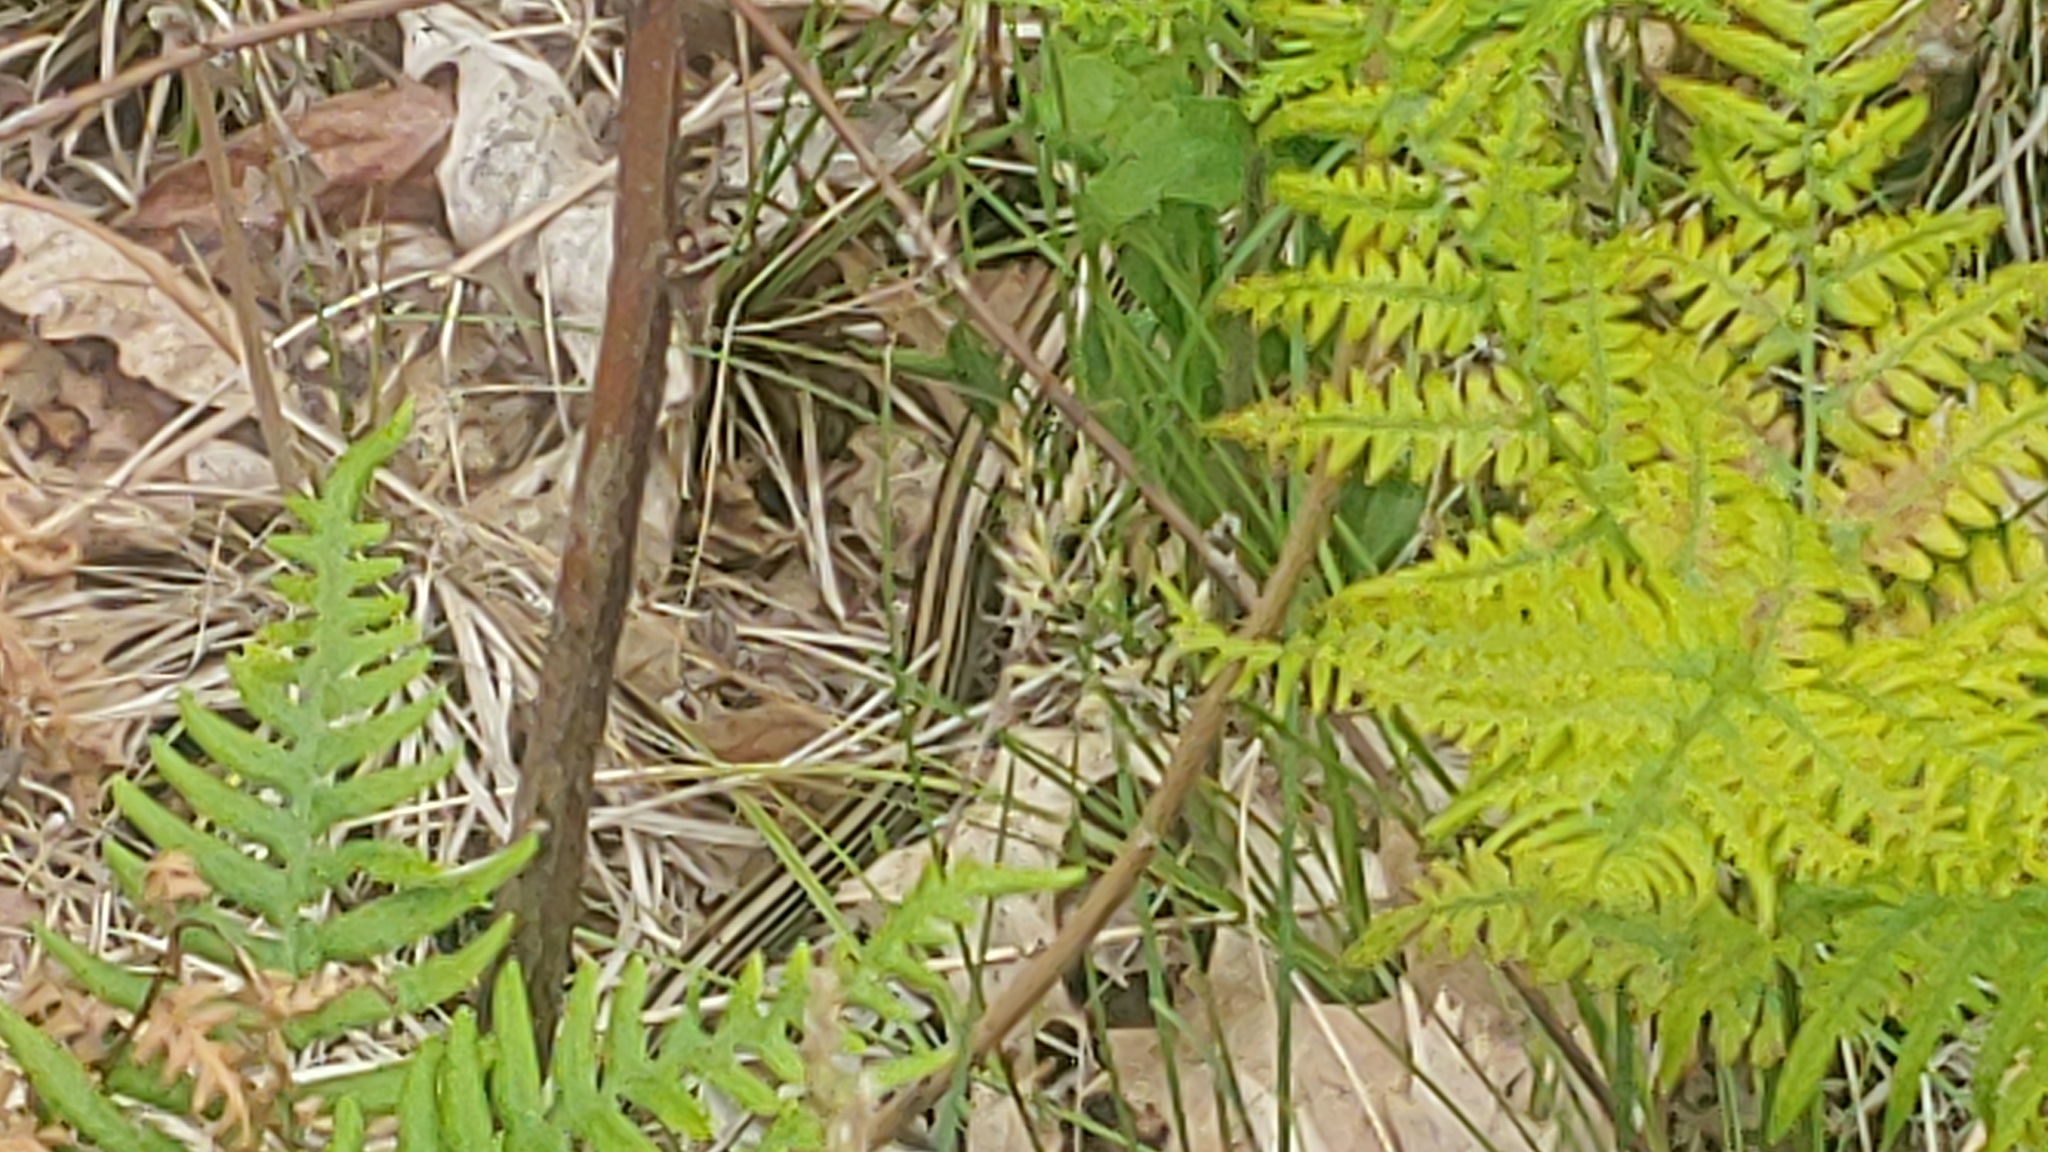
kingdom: Animalia
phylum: Chordata
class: Squamata
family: Anguidae
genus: Ophisaurus
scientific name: Ophisaurus attenuatus
